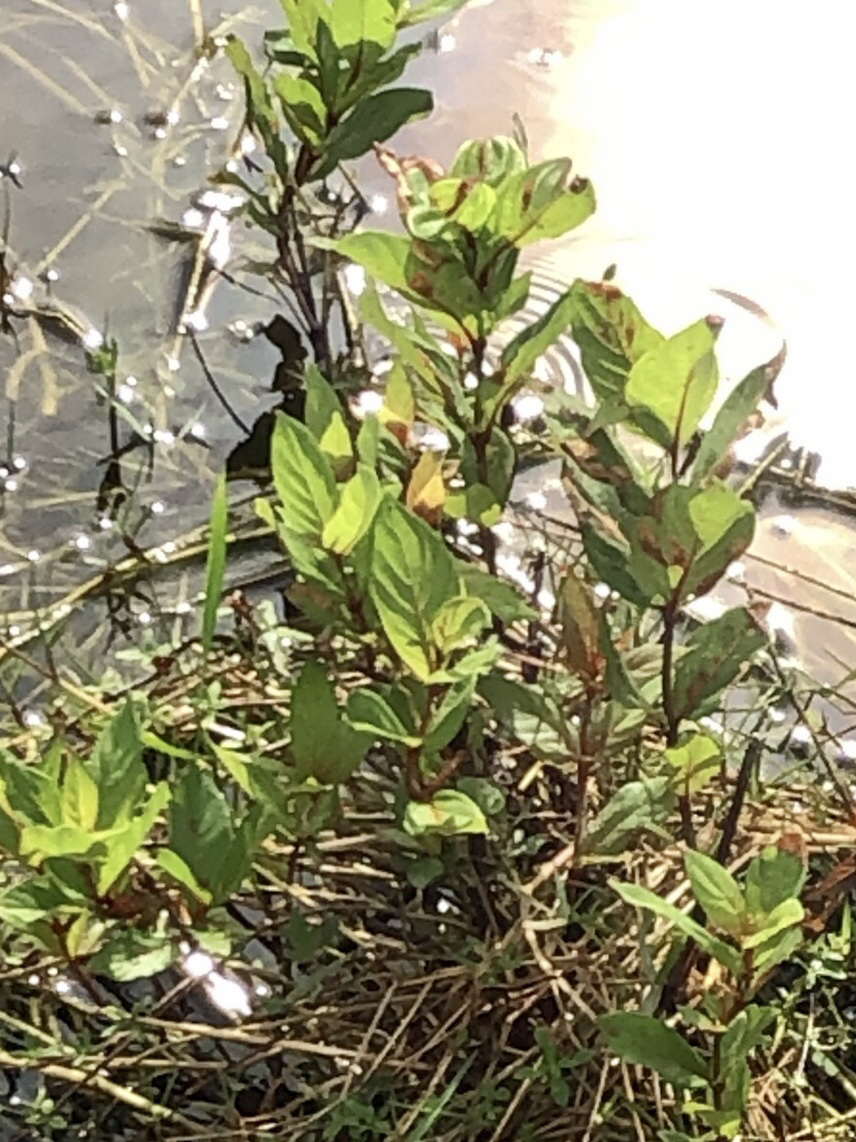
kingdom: Plantae
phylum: Tracheophyta
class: Magnoliopsida
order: Gentianales
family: Rubiaceae
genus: Cephalanthus
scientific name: Cephalanthus occidentalis
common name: Button-willow
